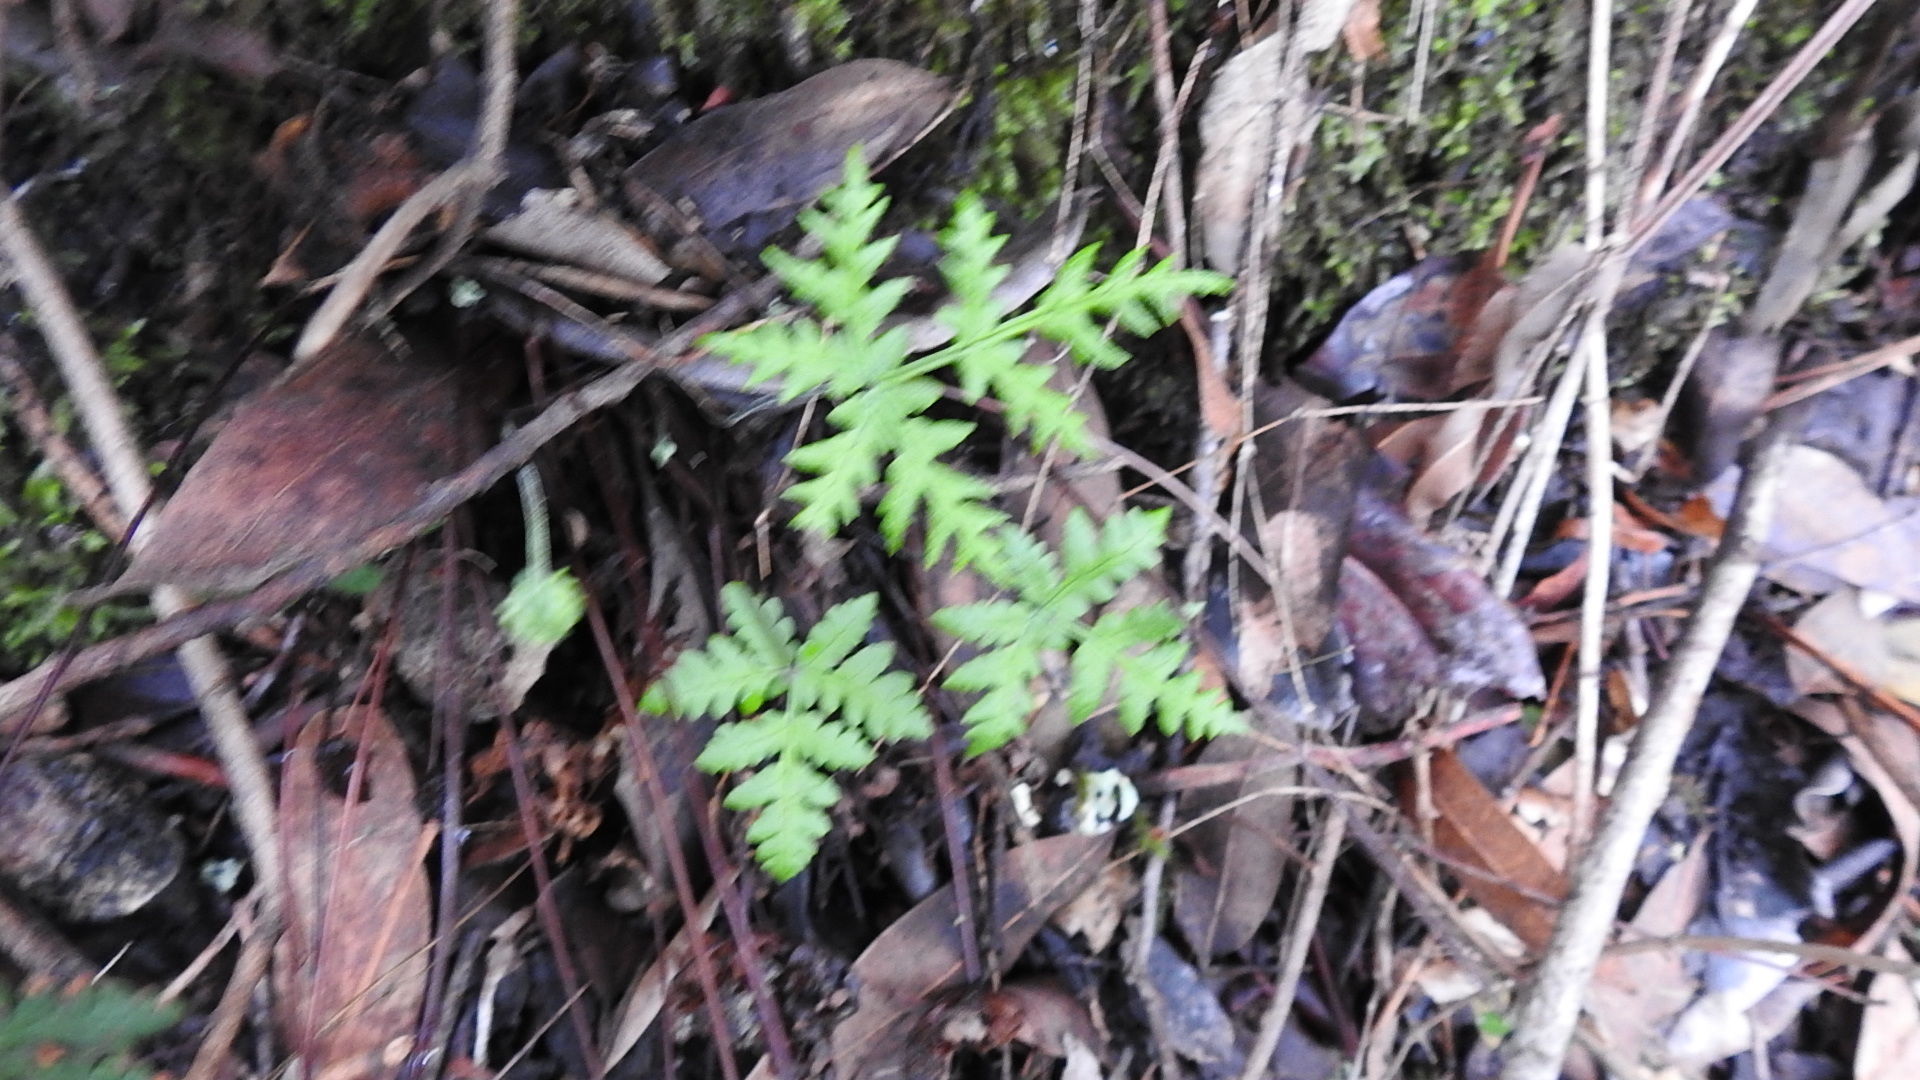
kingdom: Plantae
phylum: Tracheophyta
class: Polypodiopsida
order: Polypodiales
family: Pteridaceae
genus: Pentagramma
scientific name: Pentagramma triangularis
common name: Gold fern
